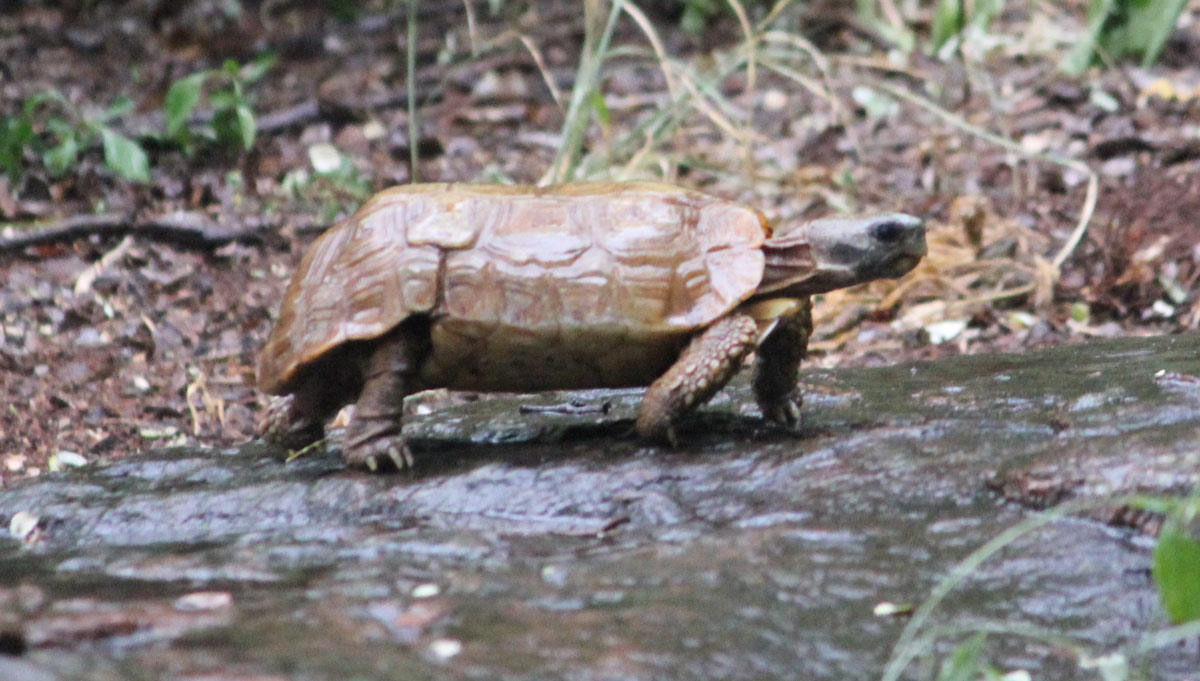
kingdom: Animalia
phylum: Chordata
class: Testudines
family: Testudinidae
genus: Kinixys
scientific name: Kinixys spekii
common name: Speke's hingeback tortoise
